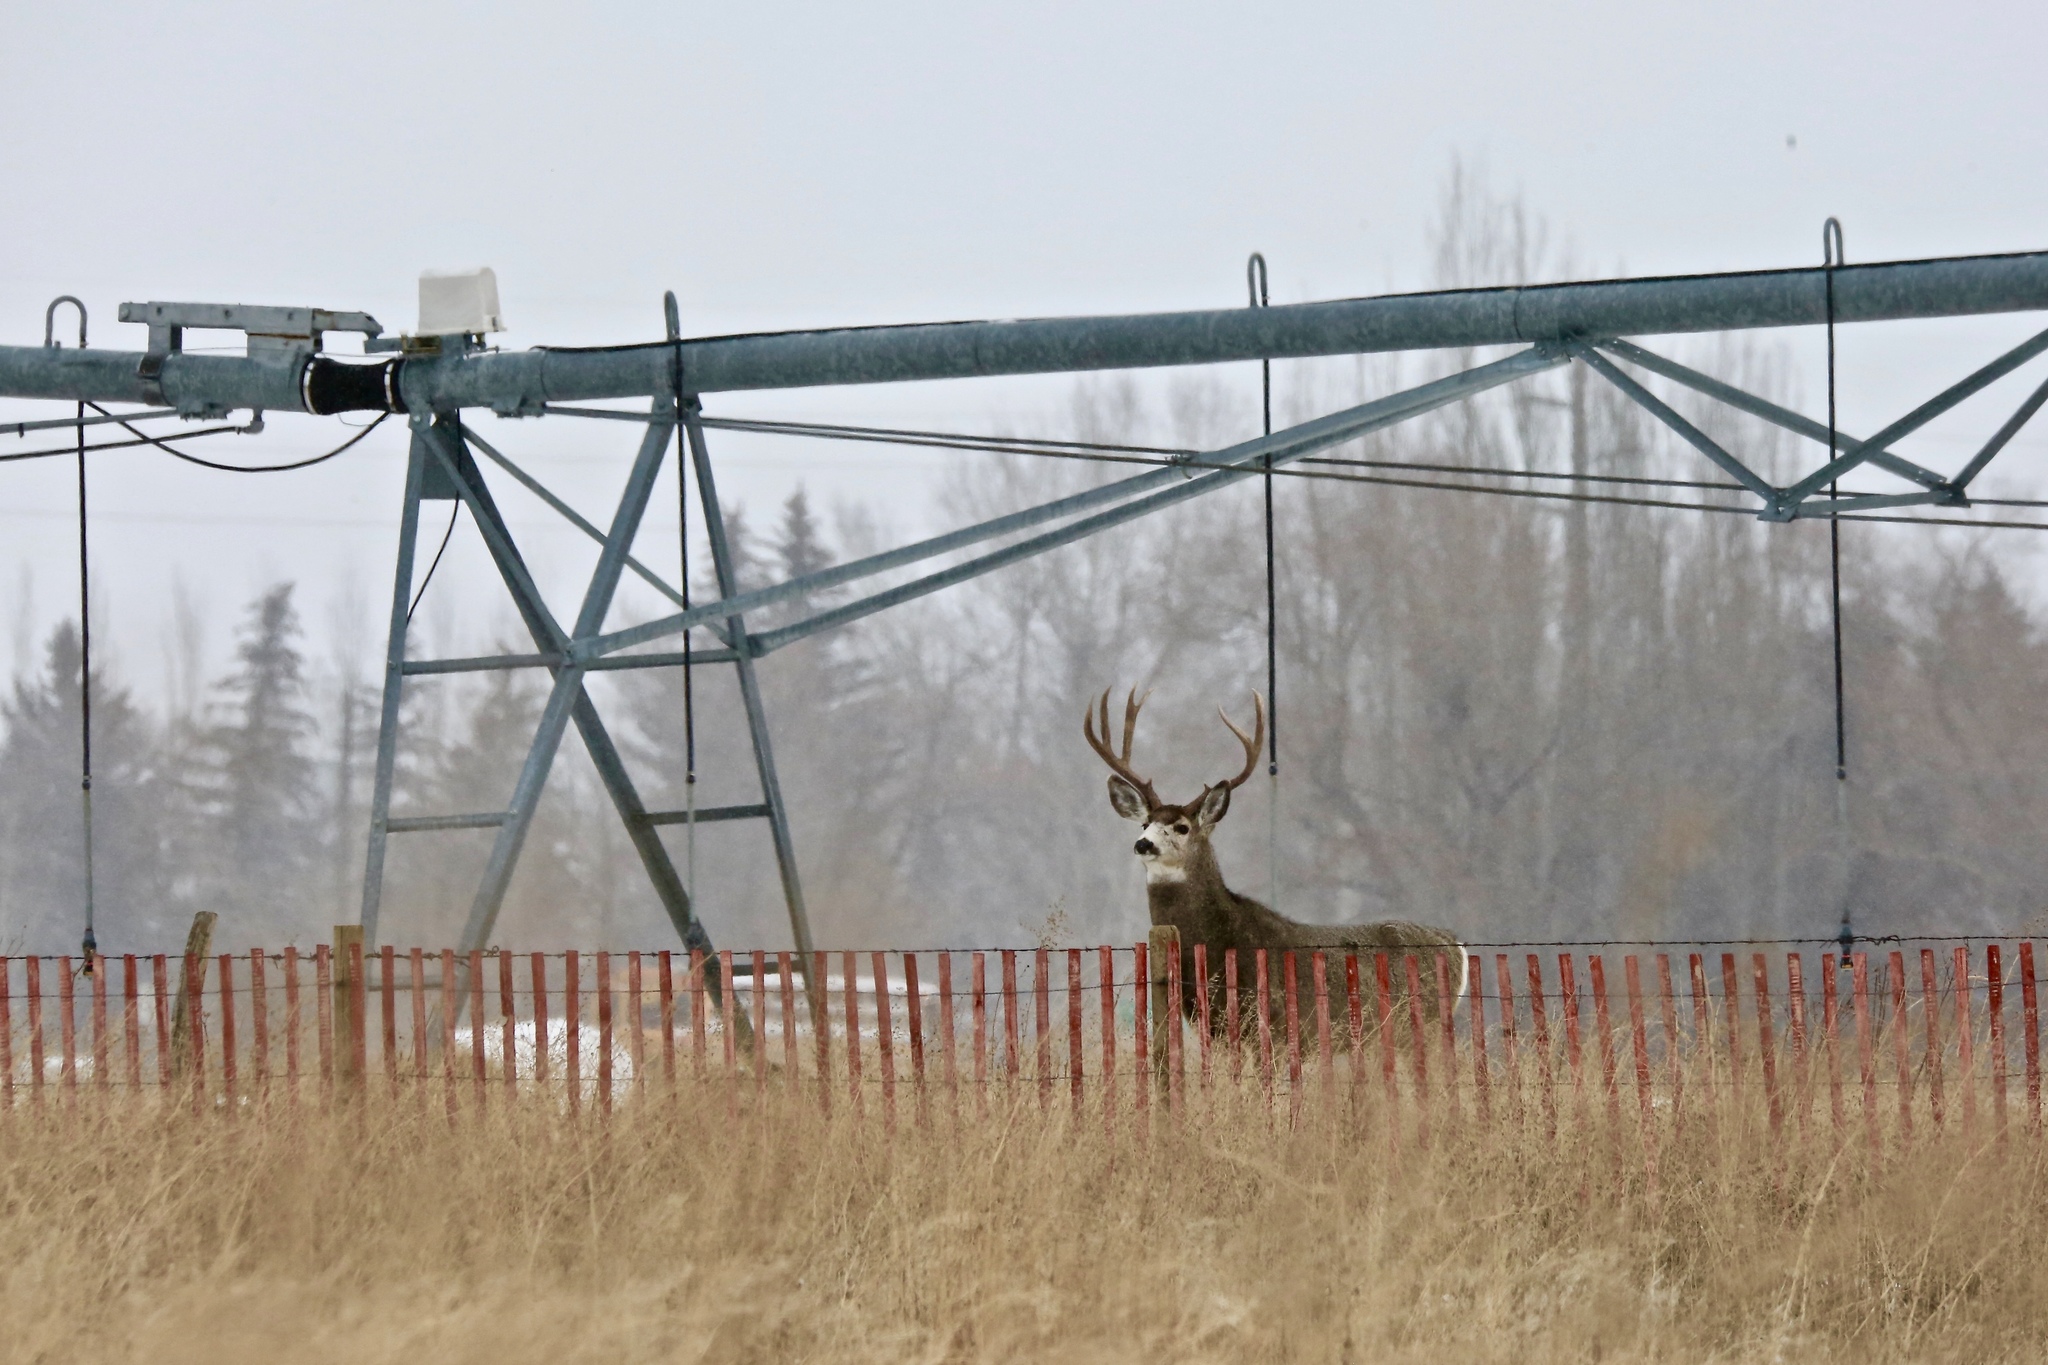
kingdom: Animalia
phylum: Chordata
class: Mammalia
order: Artiodactyla
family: Cervidae
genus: Odocoileus
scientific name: Odocoileus hemionus
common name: Mule deer
